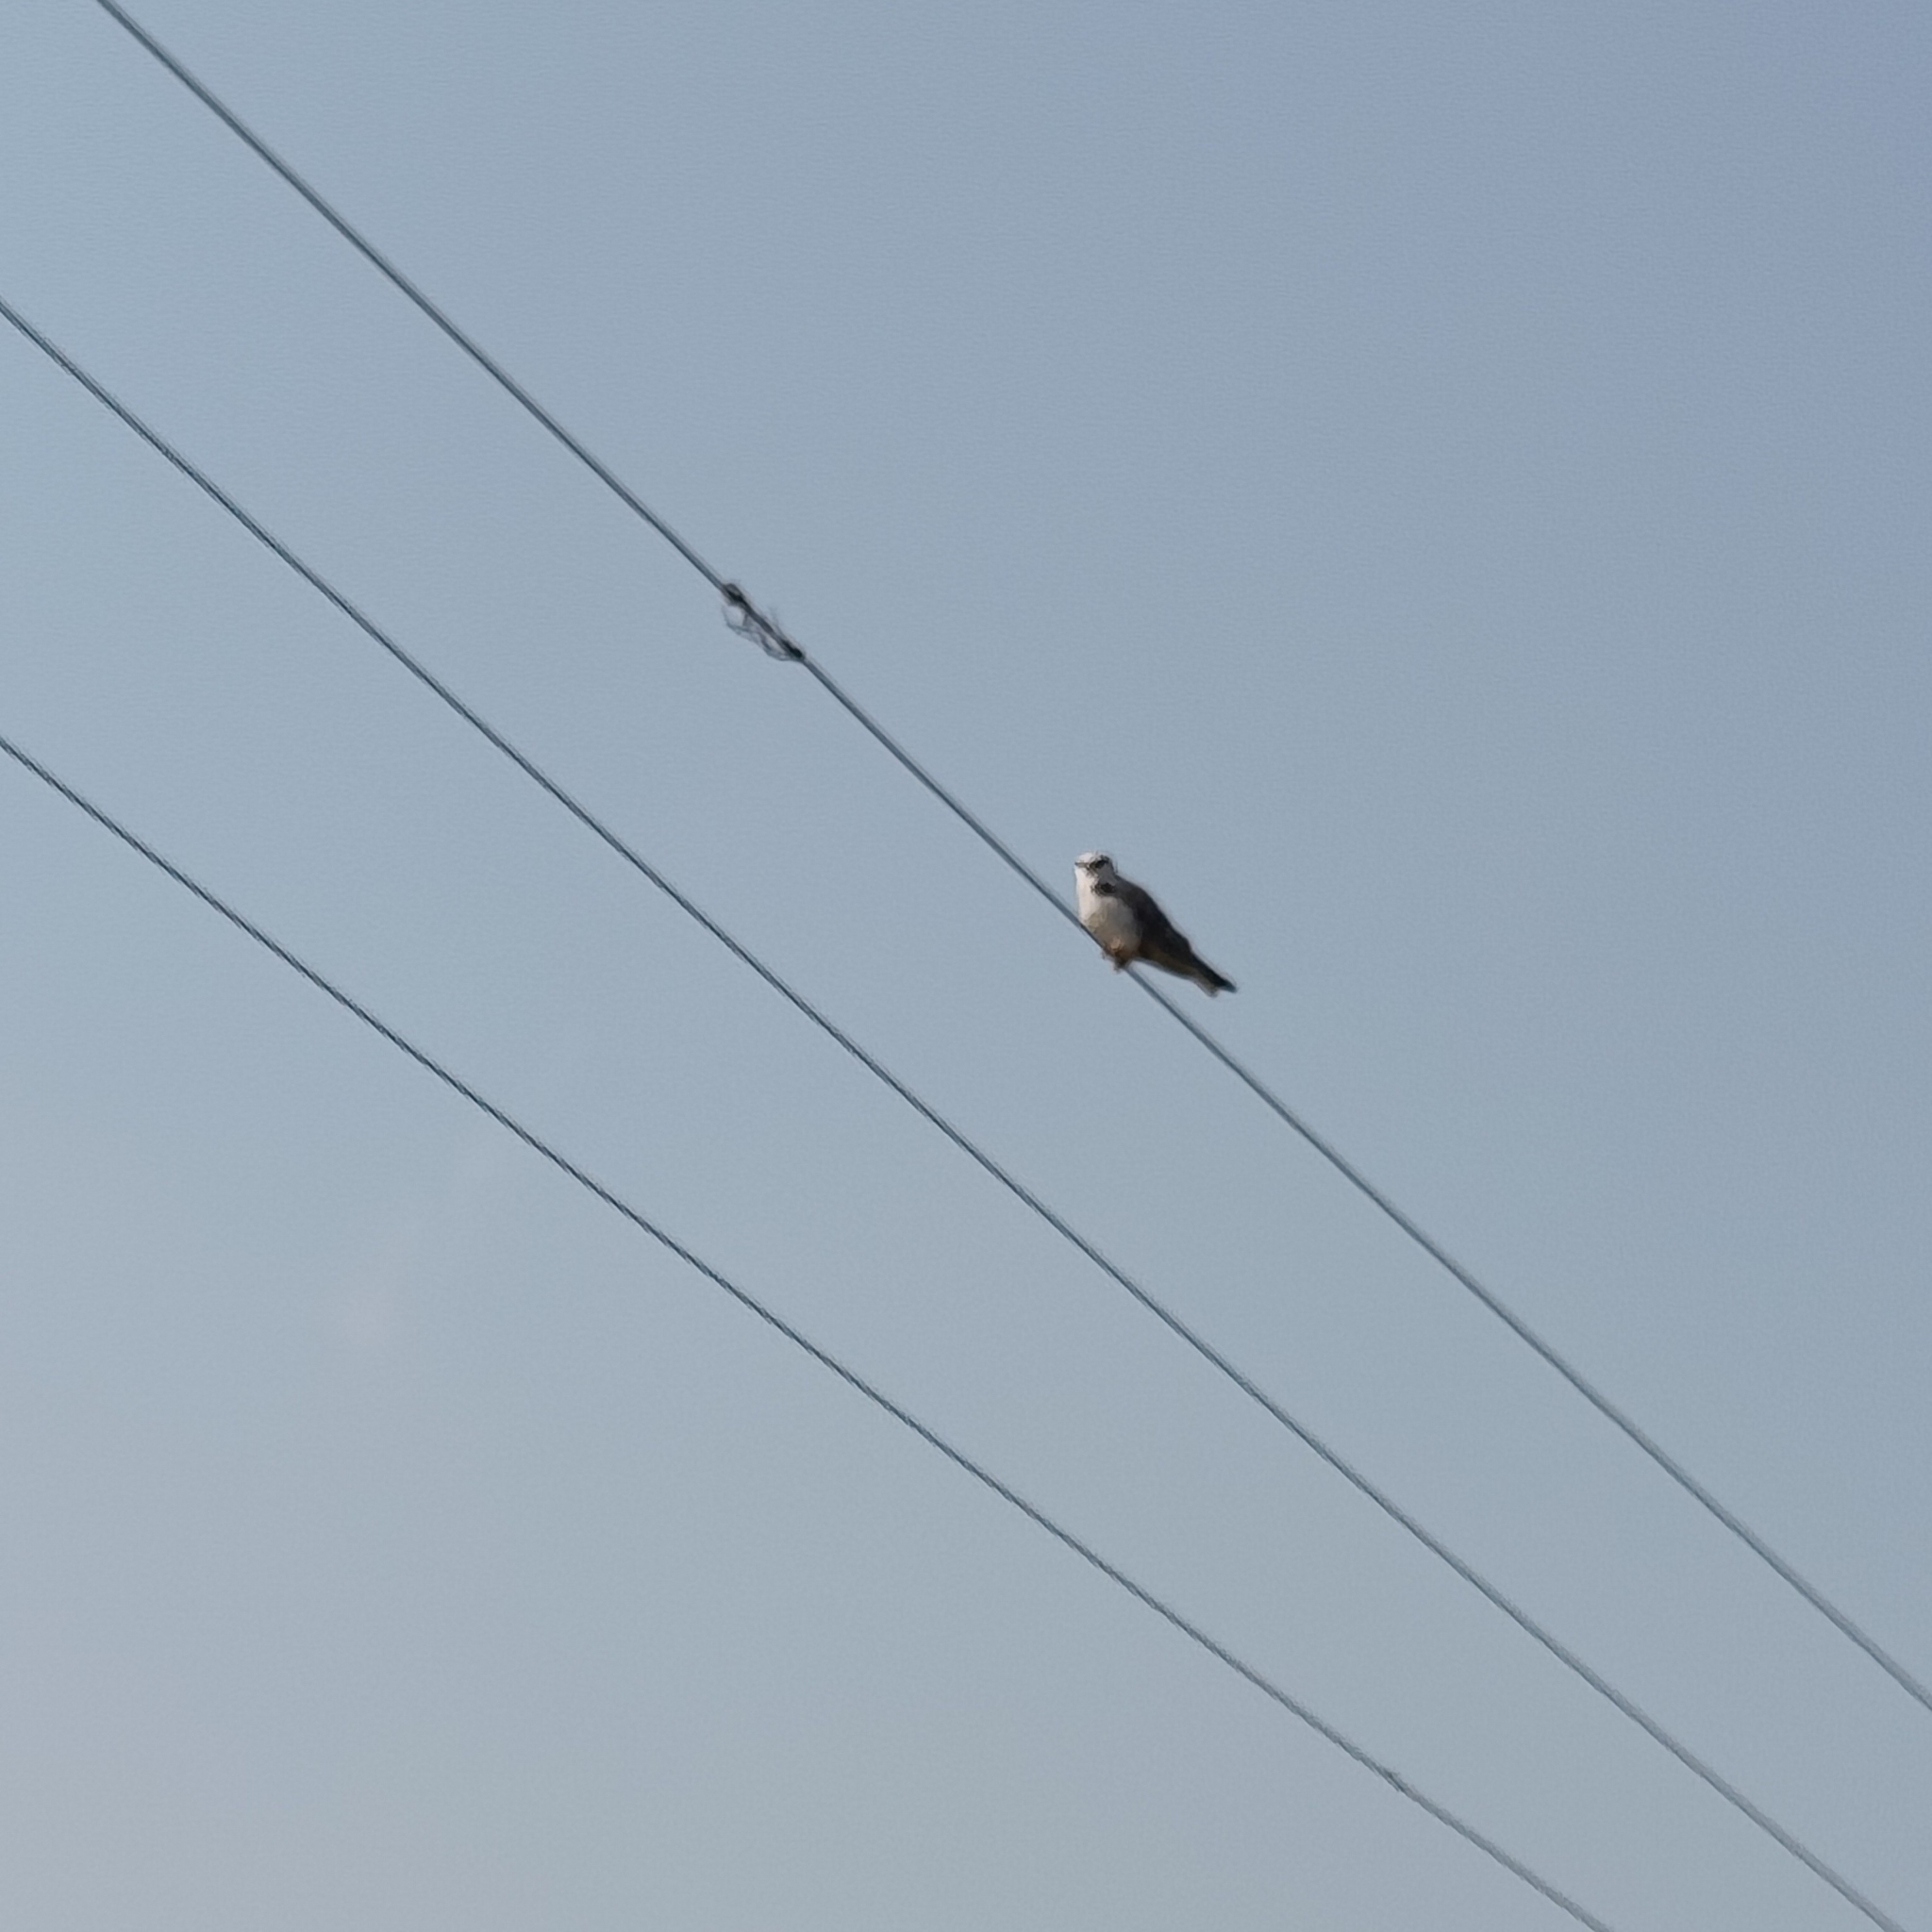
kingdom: Animalia
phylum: Chordata
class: Aves
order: Accipitriformes
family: Accipitridae
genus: Elanus
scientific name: Elanus caeruleus
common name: Black-winged kite
